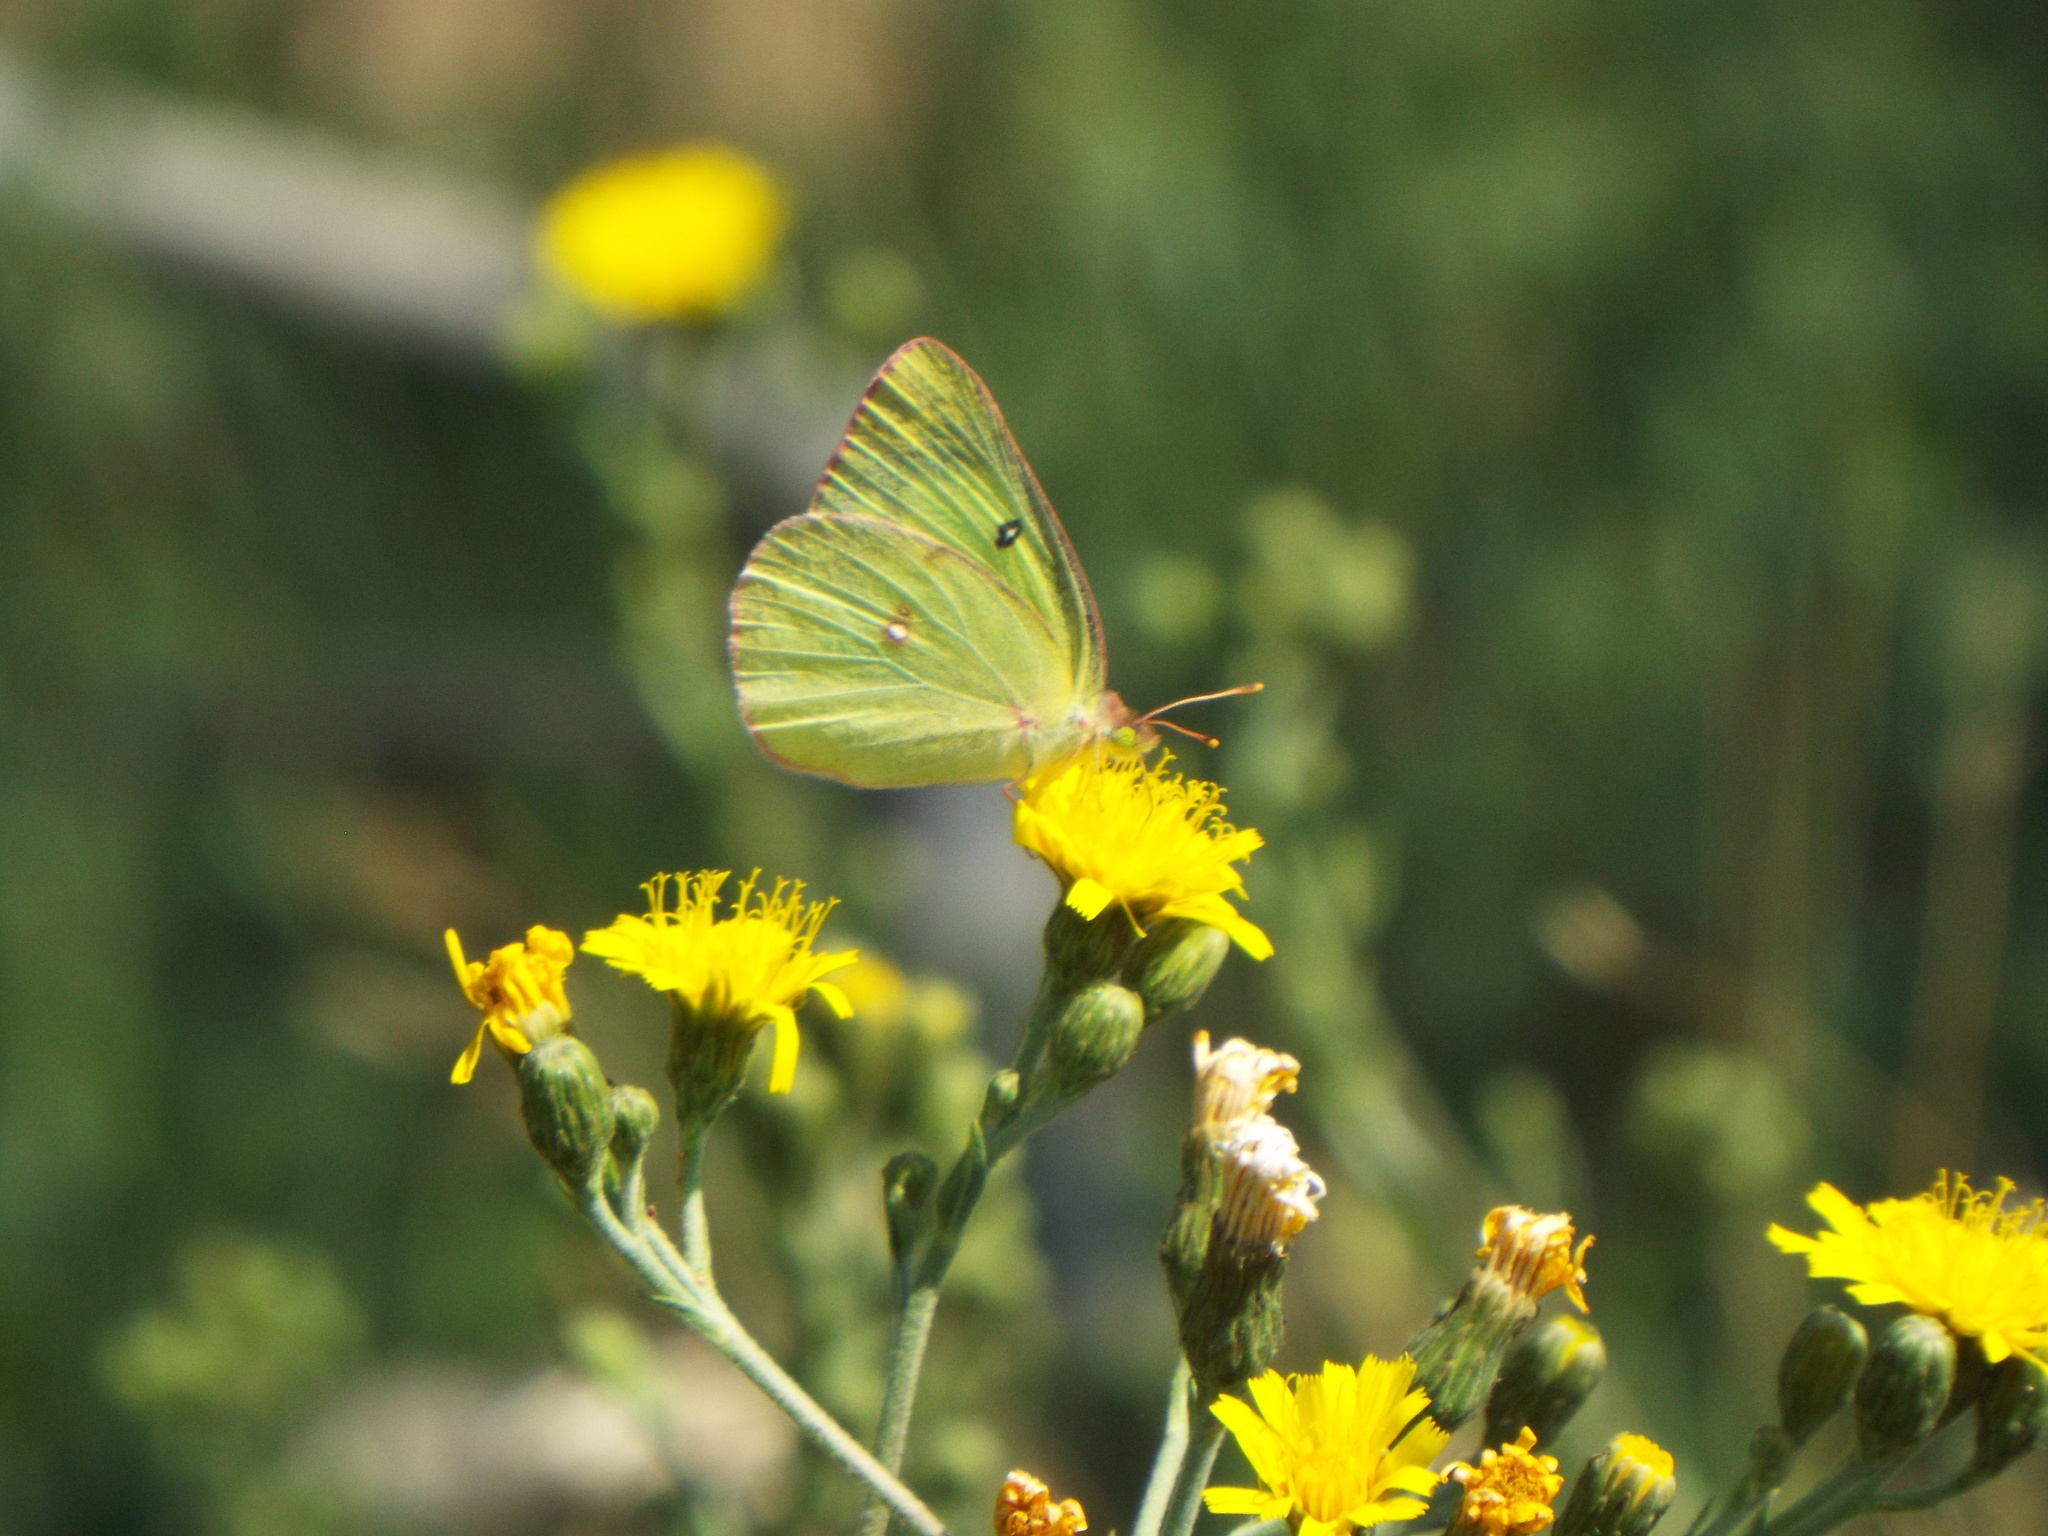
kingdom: Animalia
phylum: Arthropoda
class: Insecta
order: Lepidoptera
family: Pieridae
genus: Colias
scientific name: Colias philodice
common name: Clouded sulphur
